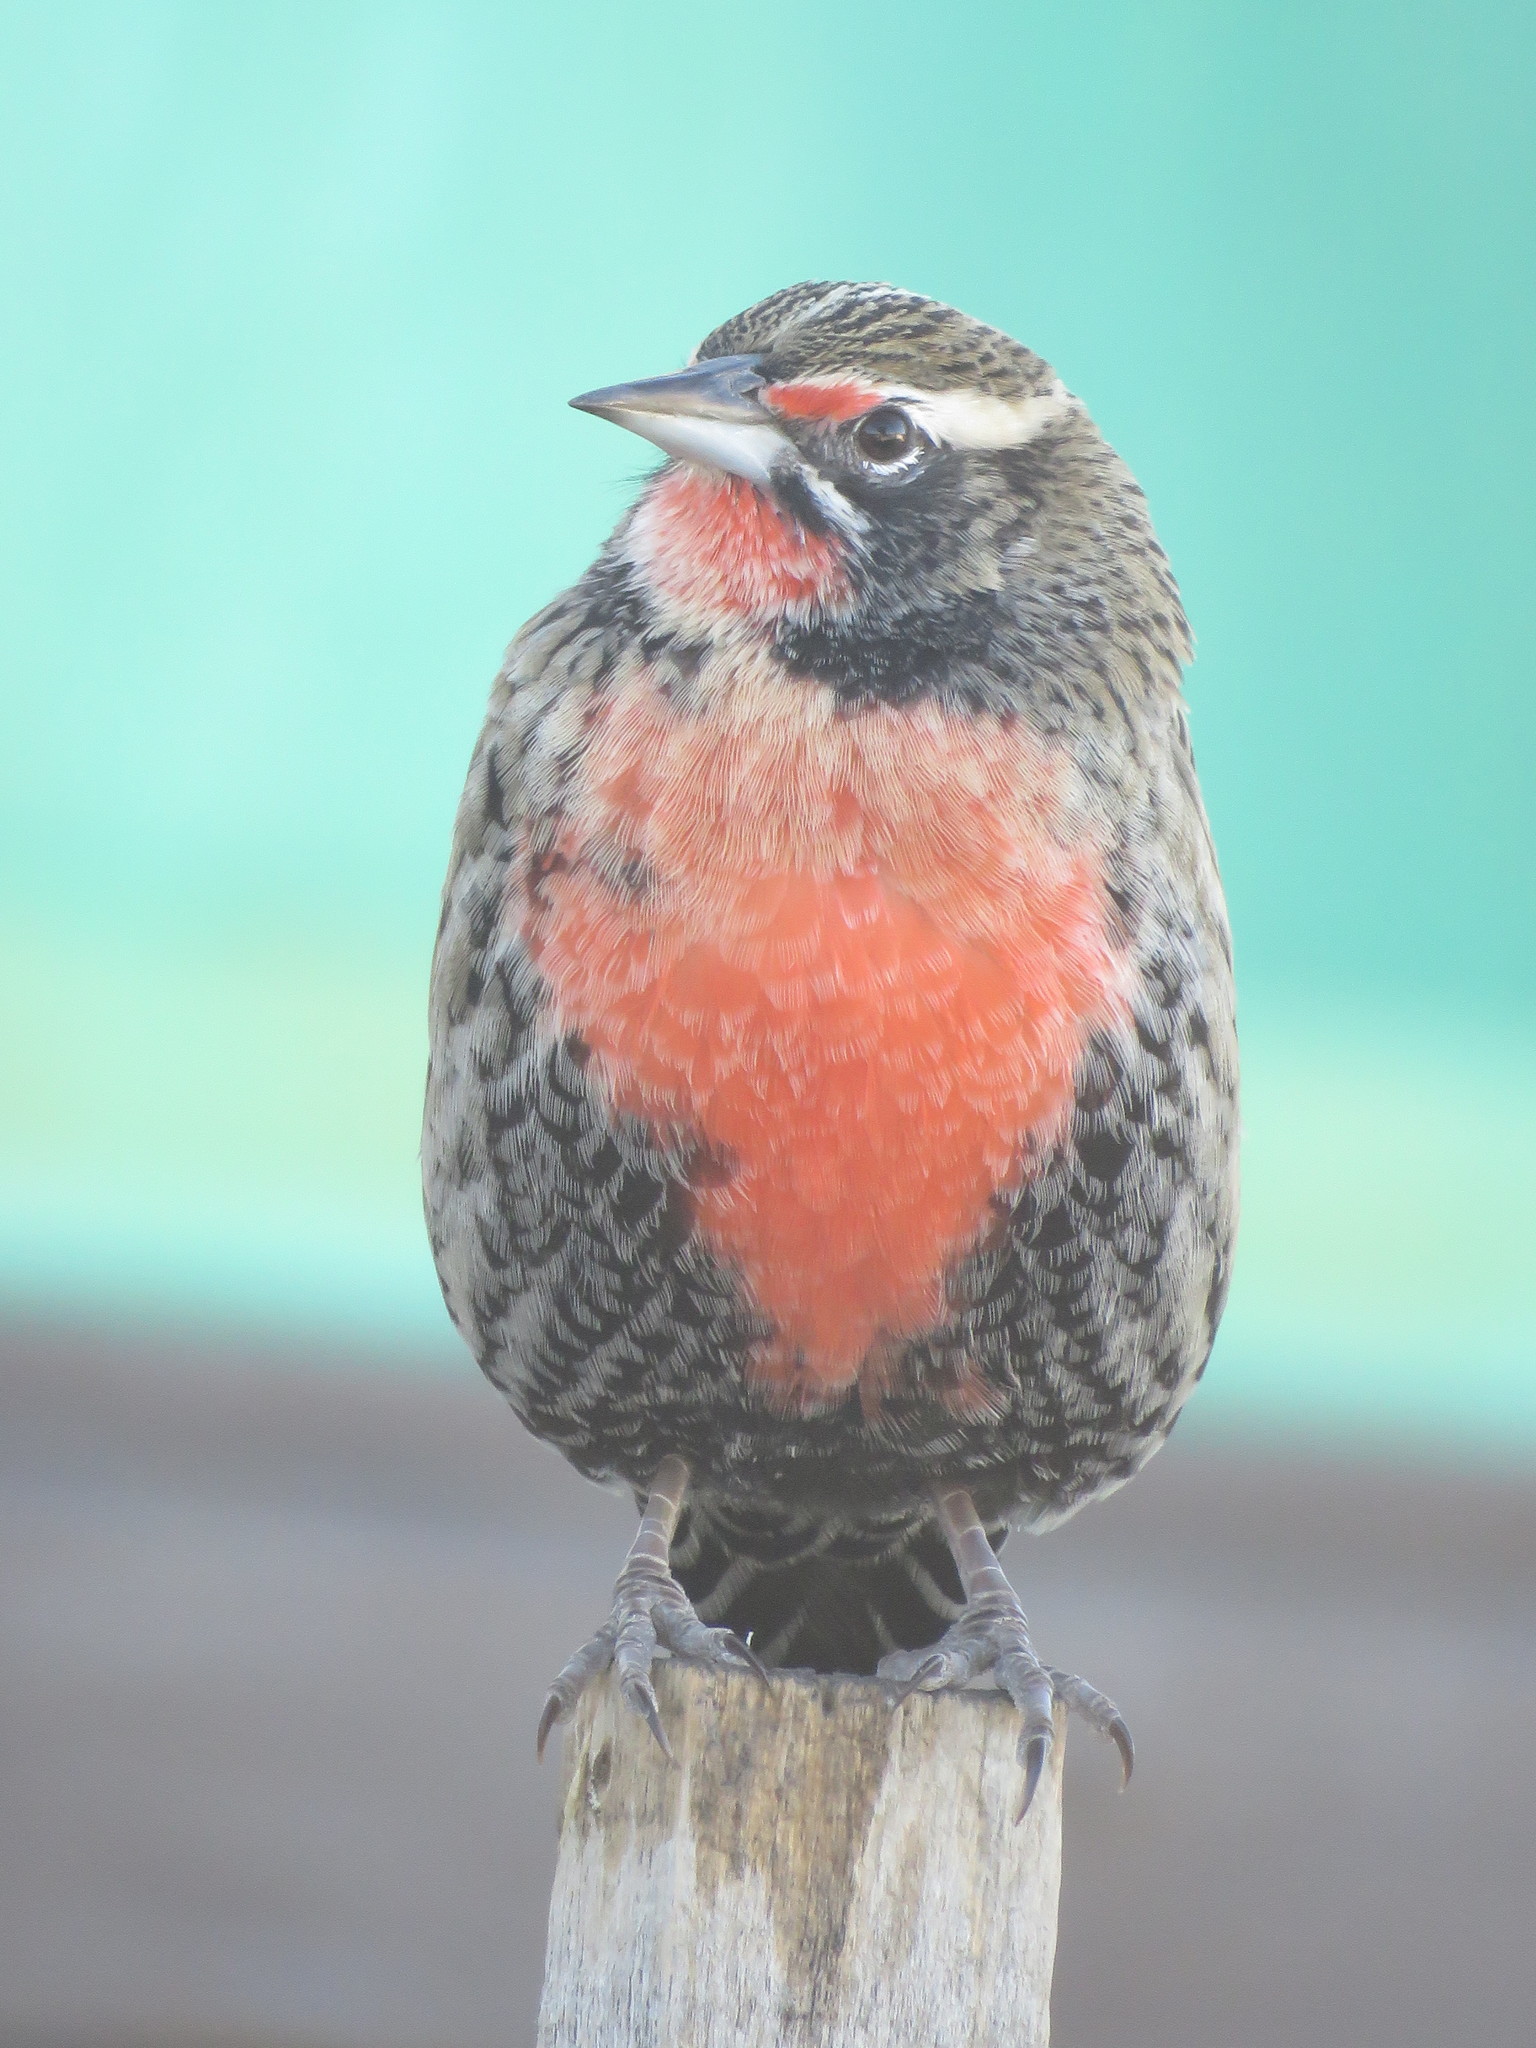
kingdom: Animalia
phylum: Chordata
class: Aves
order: Passeriformes
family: Icteridae
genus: Sturnella
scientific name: Sturnella loyca
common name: Long-tailed meadowlark
